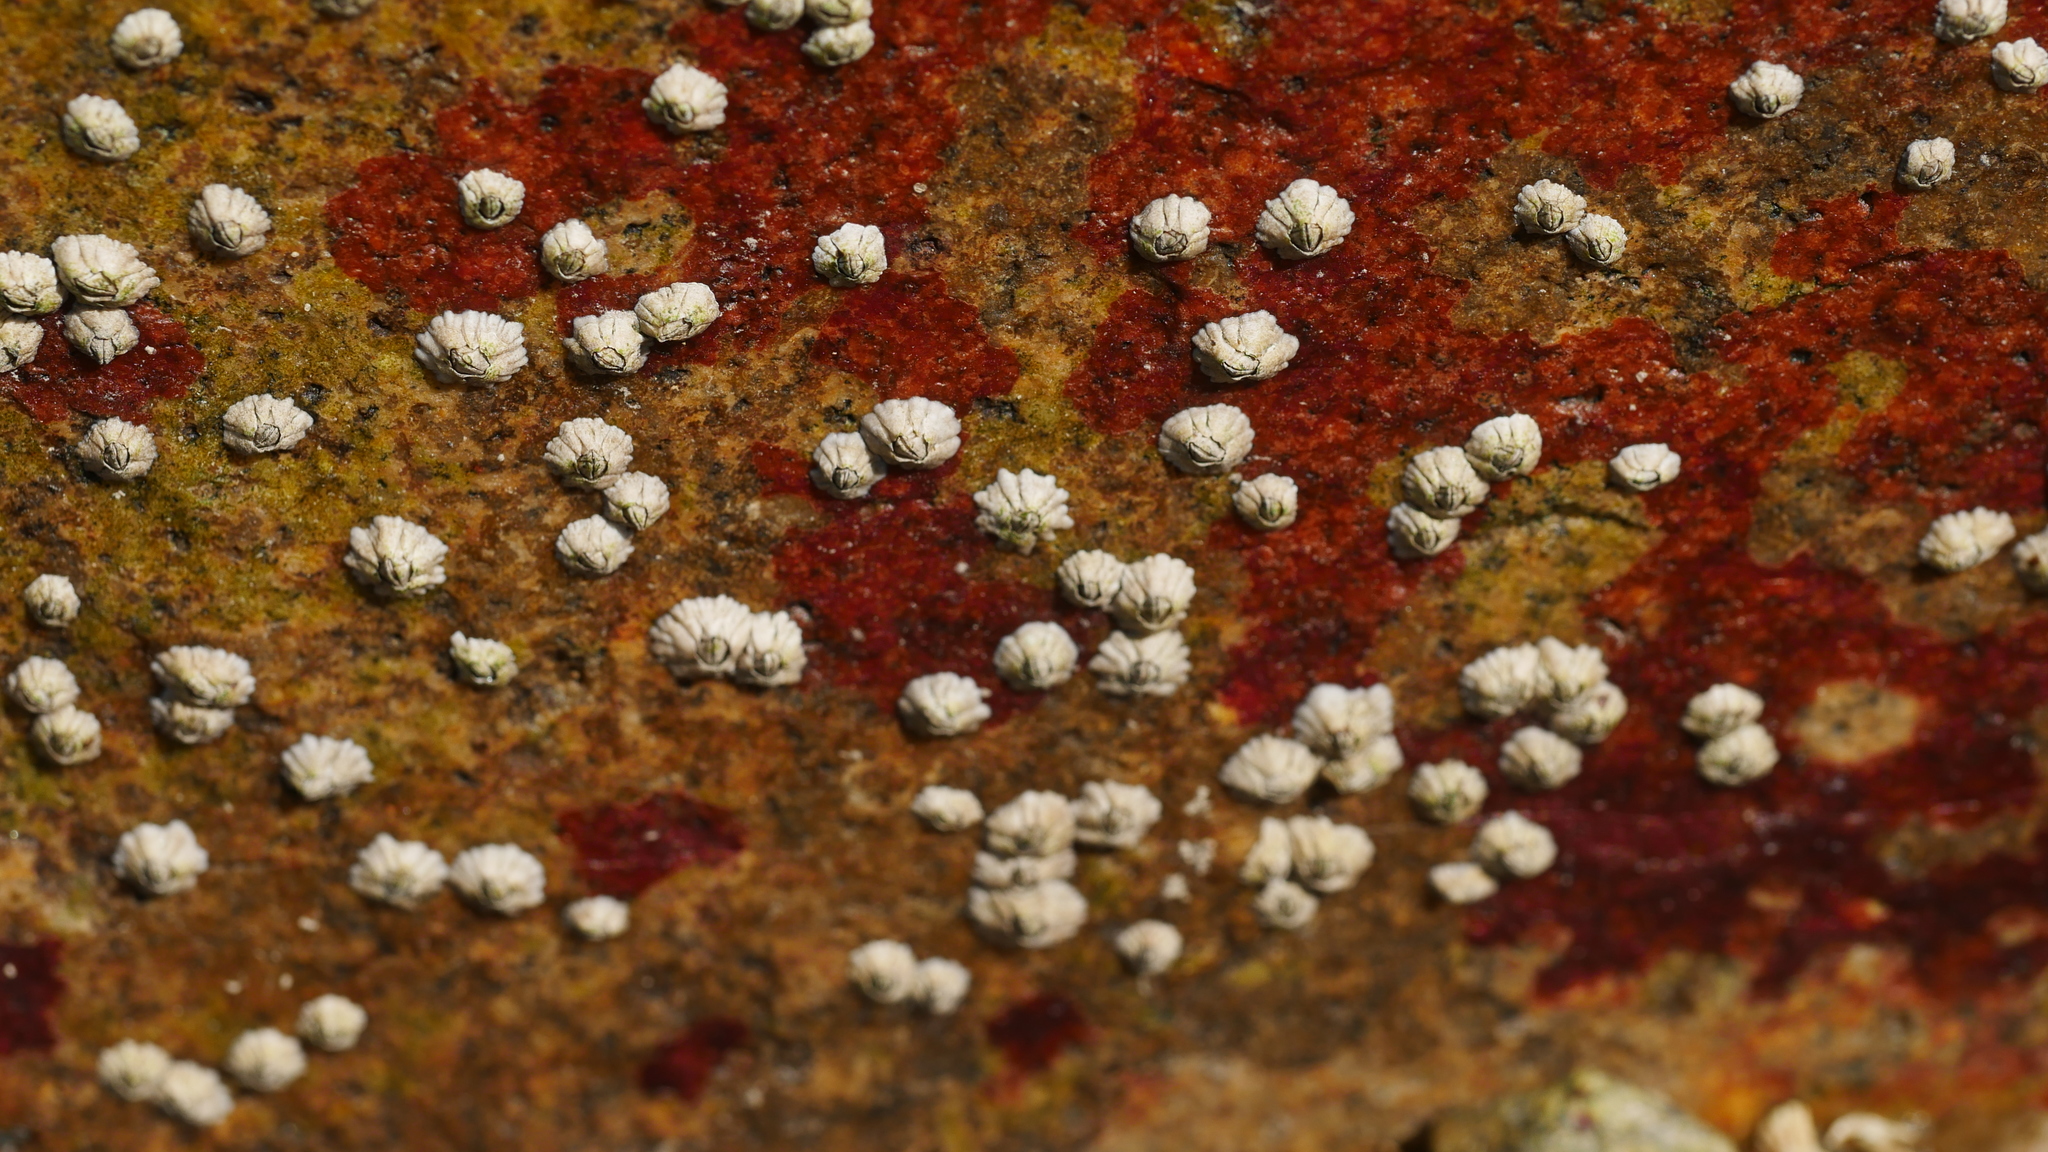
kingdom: Animalia
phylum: Arthropoda
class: Maxillopoda
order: Sessilia
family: Archaeobalanidae
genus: Semibalanus
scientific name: Semibalanus balanoides
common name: Acorn barnacle
